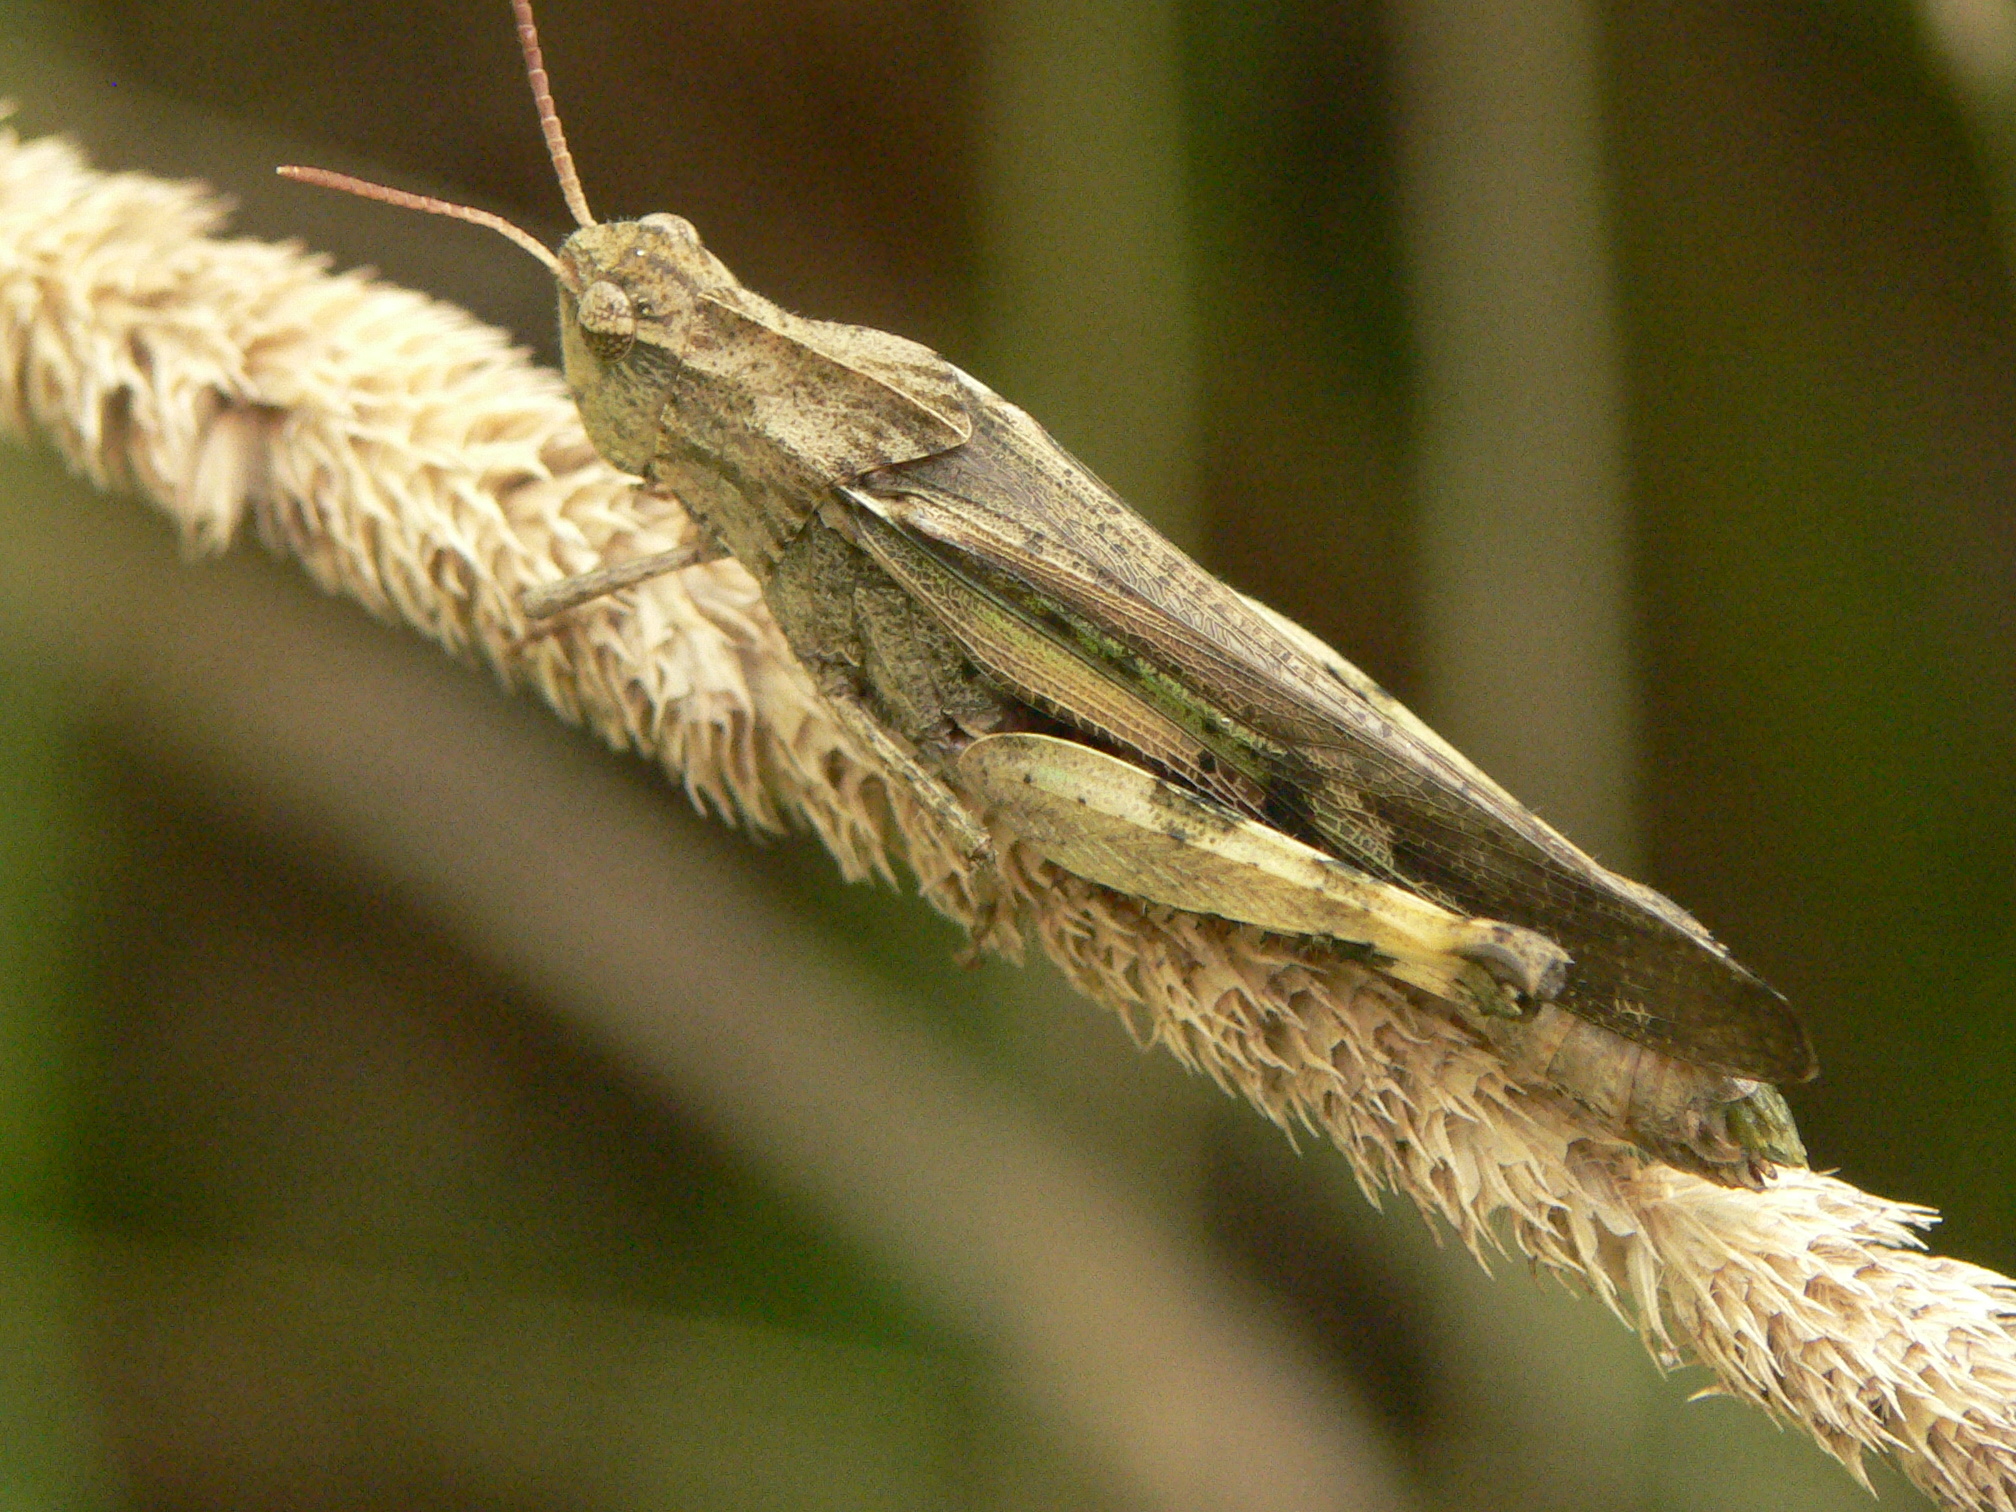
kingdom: Animalia
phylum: Arthropoda
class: Insecta
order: Orthoptera
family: Acrididae
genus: Chortophaga
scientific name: Chortophaga viridifasciata
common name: Green-striped grasshopper
